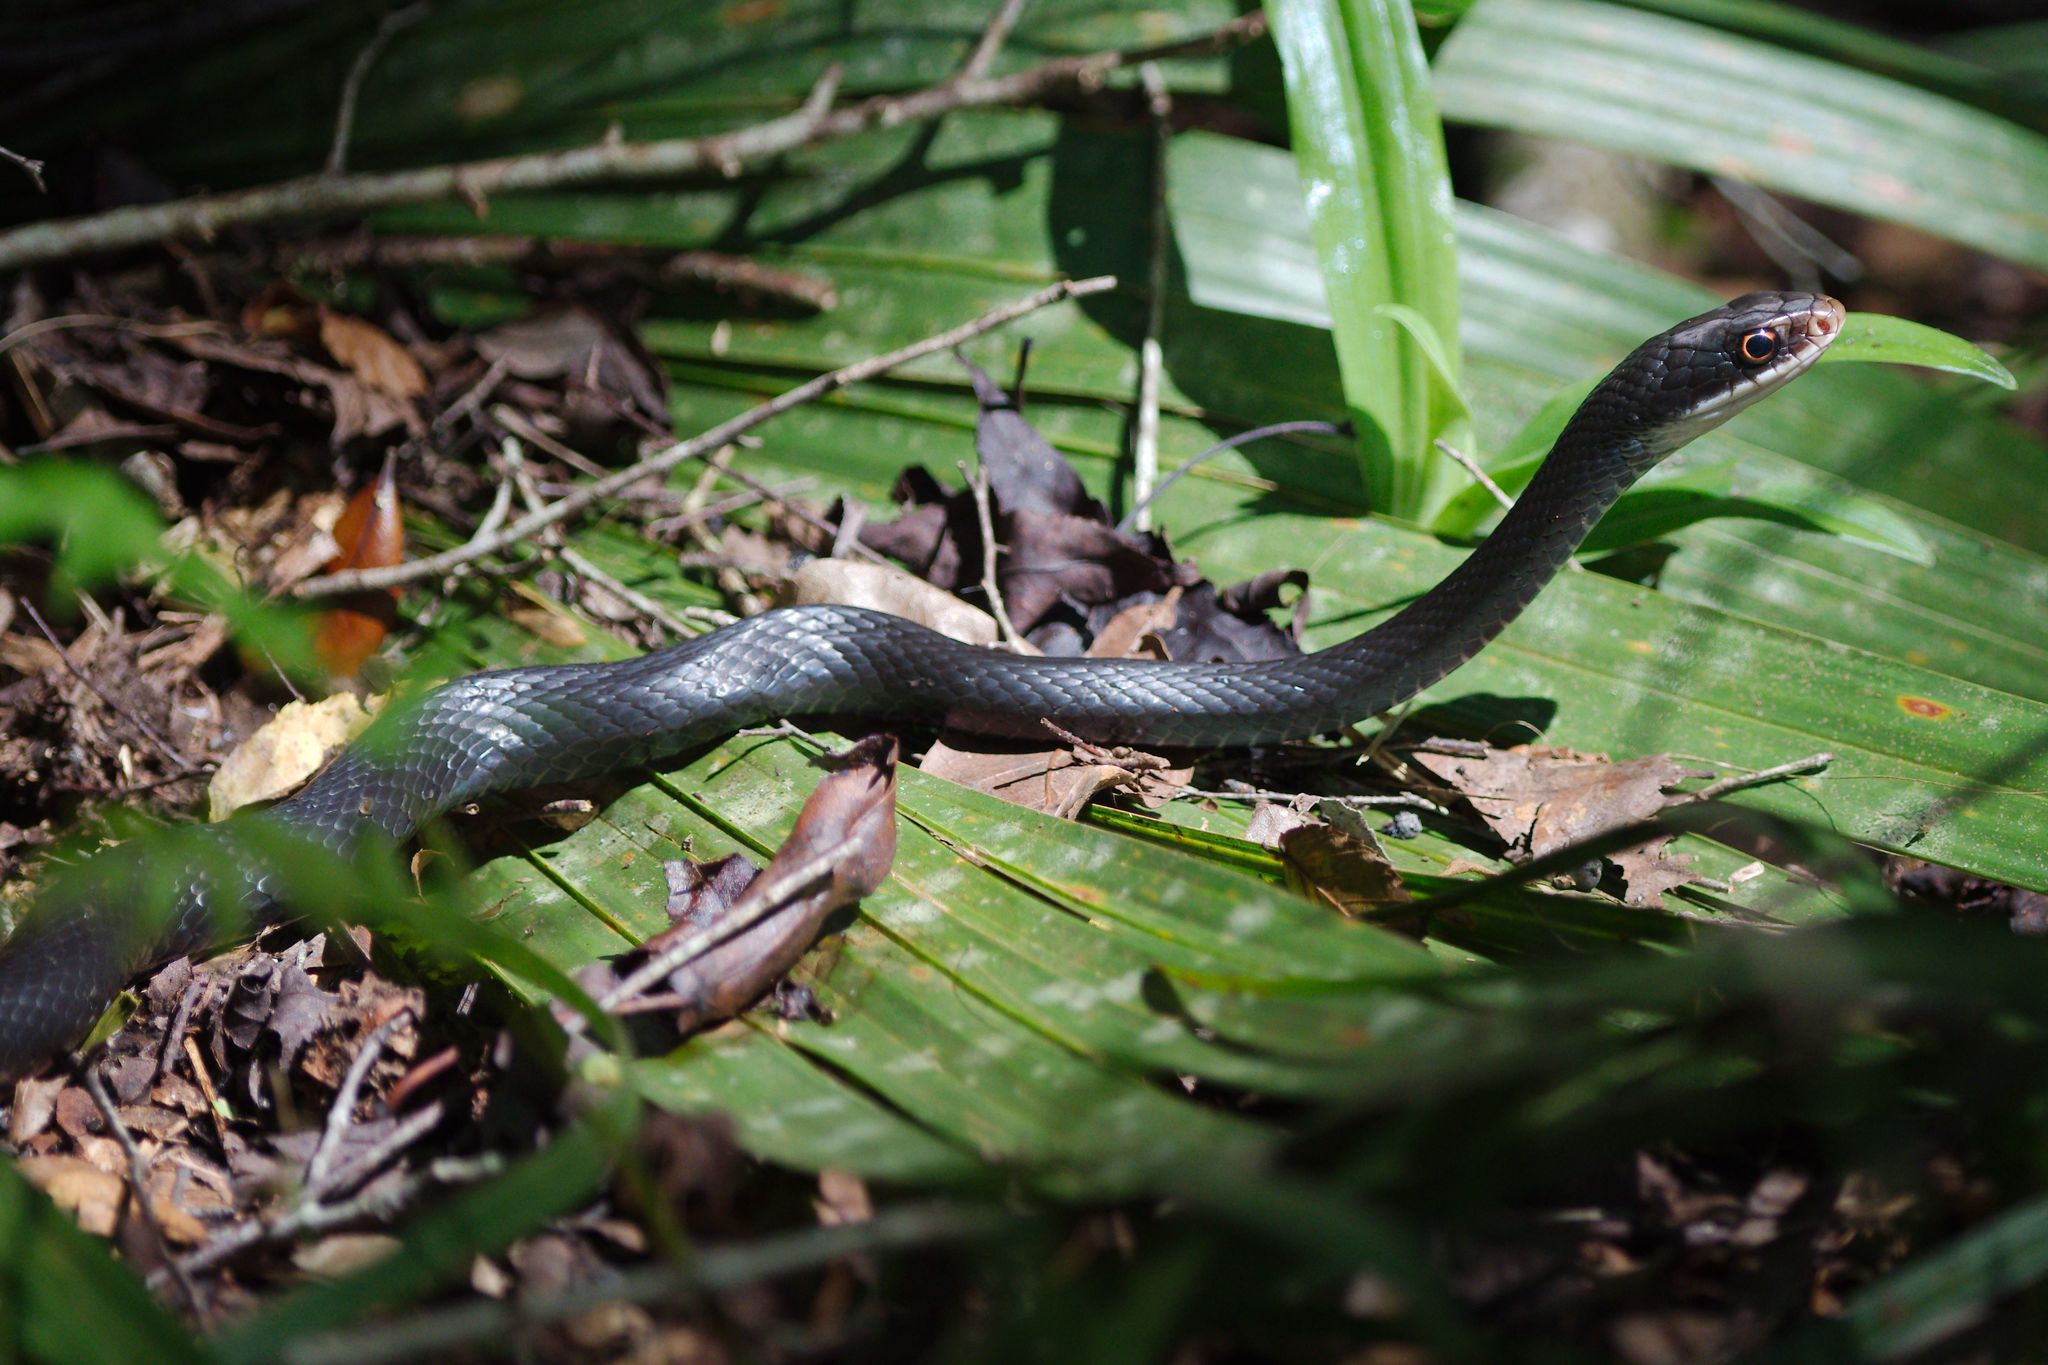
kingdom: Animalia
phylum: Chordata
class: Squamata
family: Colubridae
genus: Coluber
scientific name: Coluber constrictor
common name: Eastern racer
